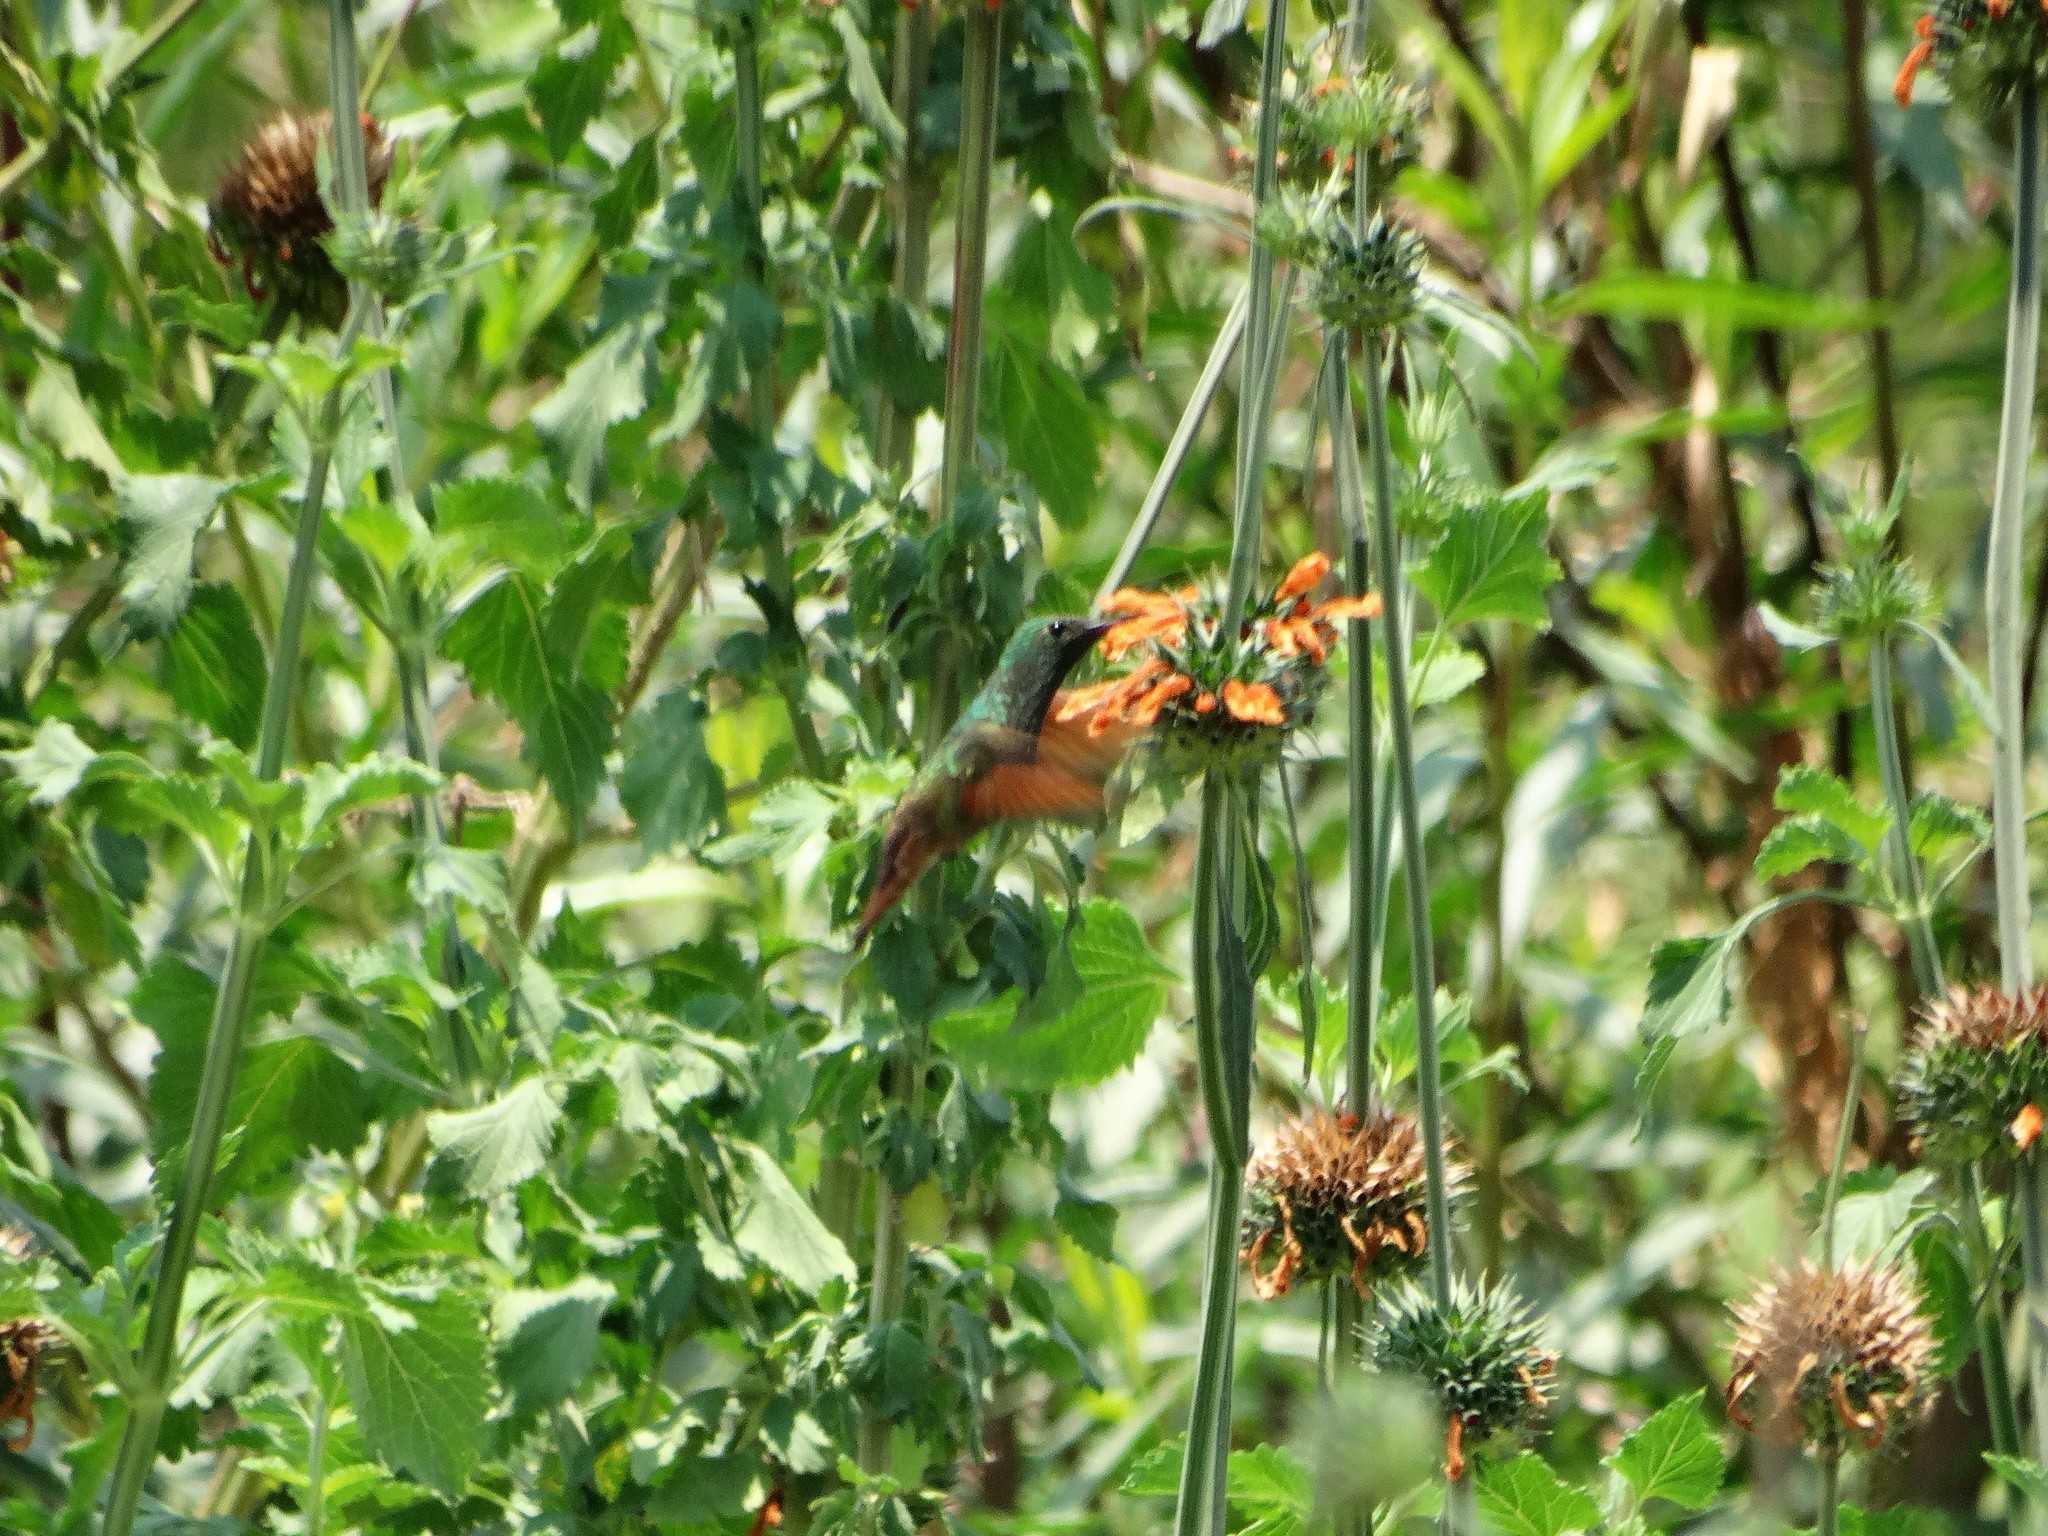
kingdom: Animalia
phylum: Chordata
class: Aves
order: Apodiformes
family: Trochilidae
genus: Saucerottia
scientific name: Saucerottia beryllina
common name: Berylline hummingbird
